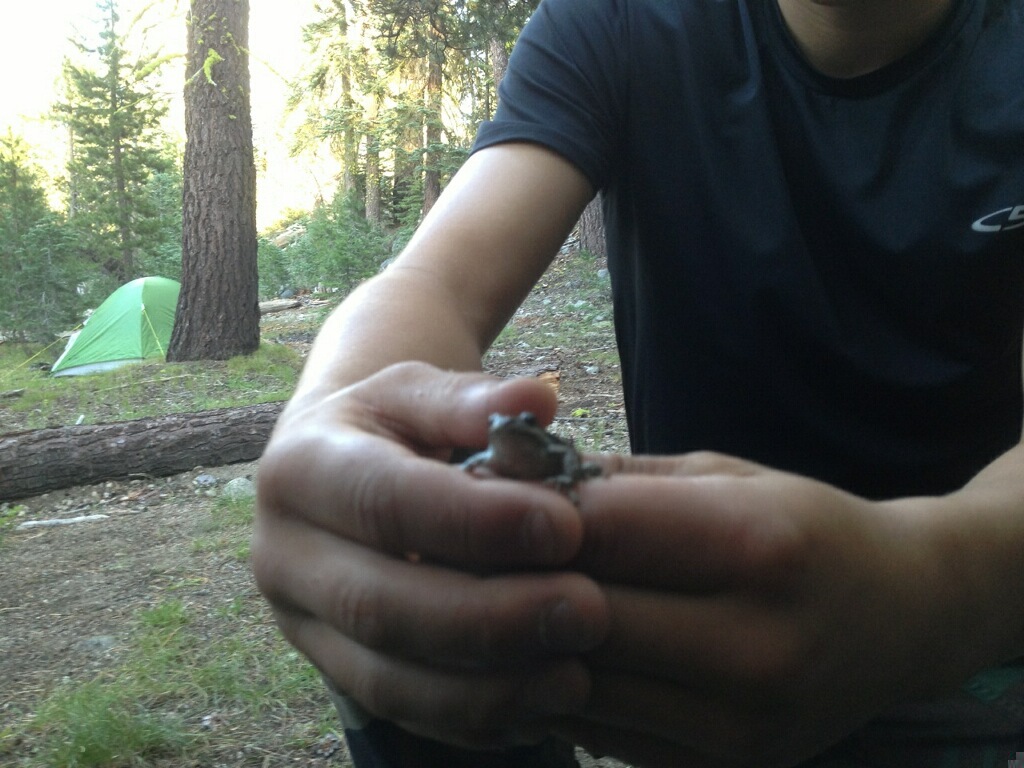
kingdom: Animalia
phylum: Chordata
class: Amphibia
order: Anura
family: Hylidae
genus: Pseudacris
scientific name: Pseudacris regilla
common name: Pacific chorus frog
